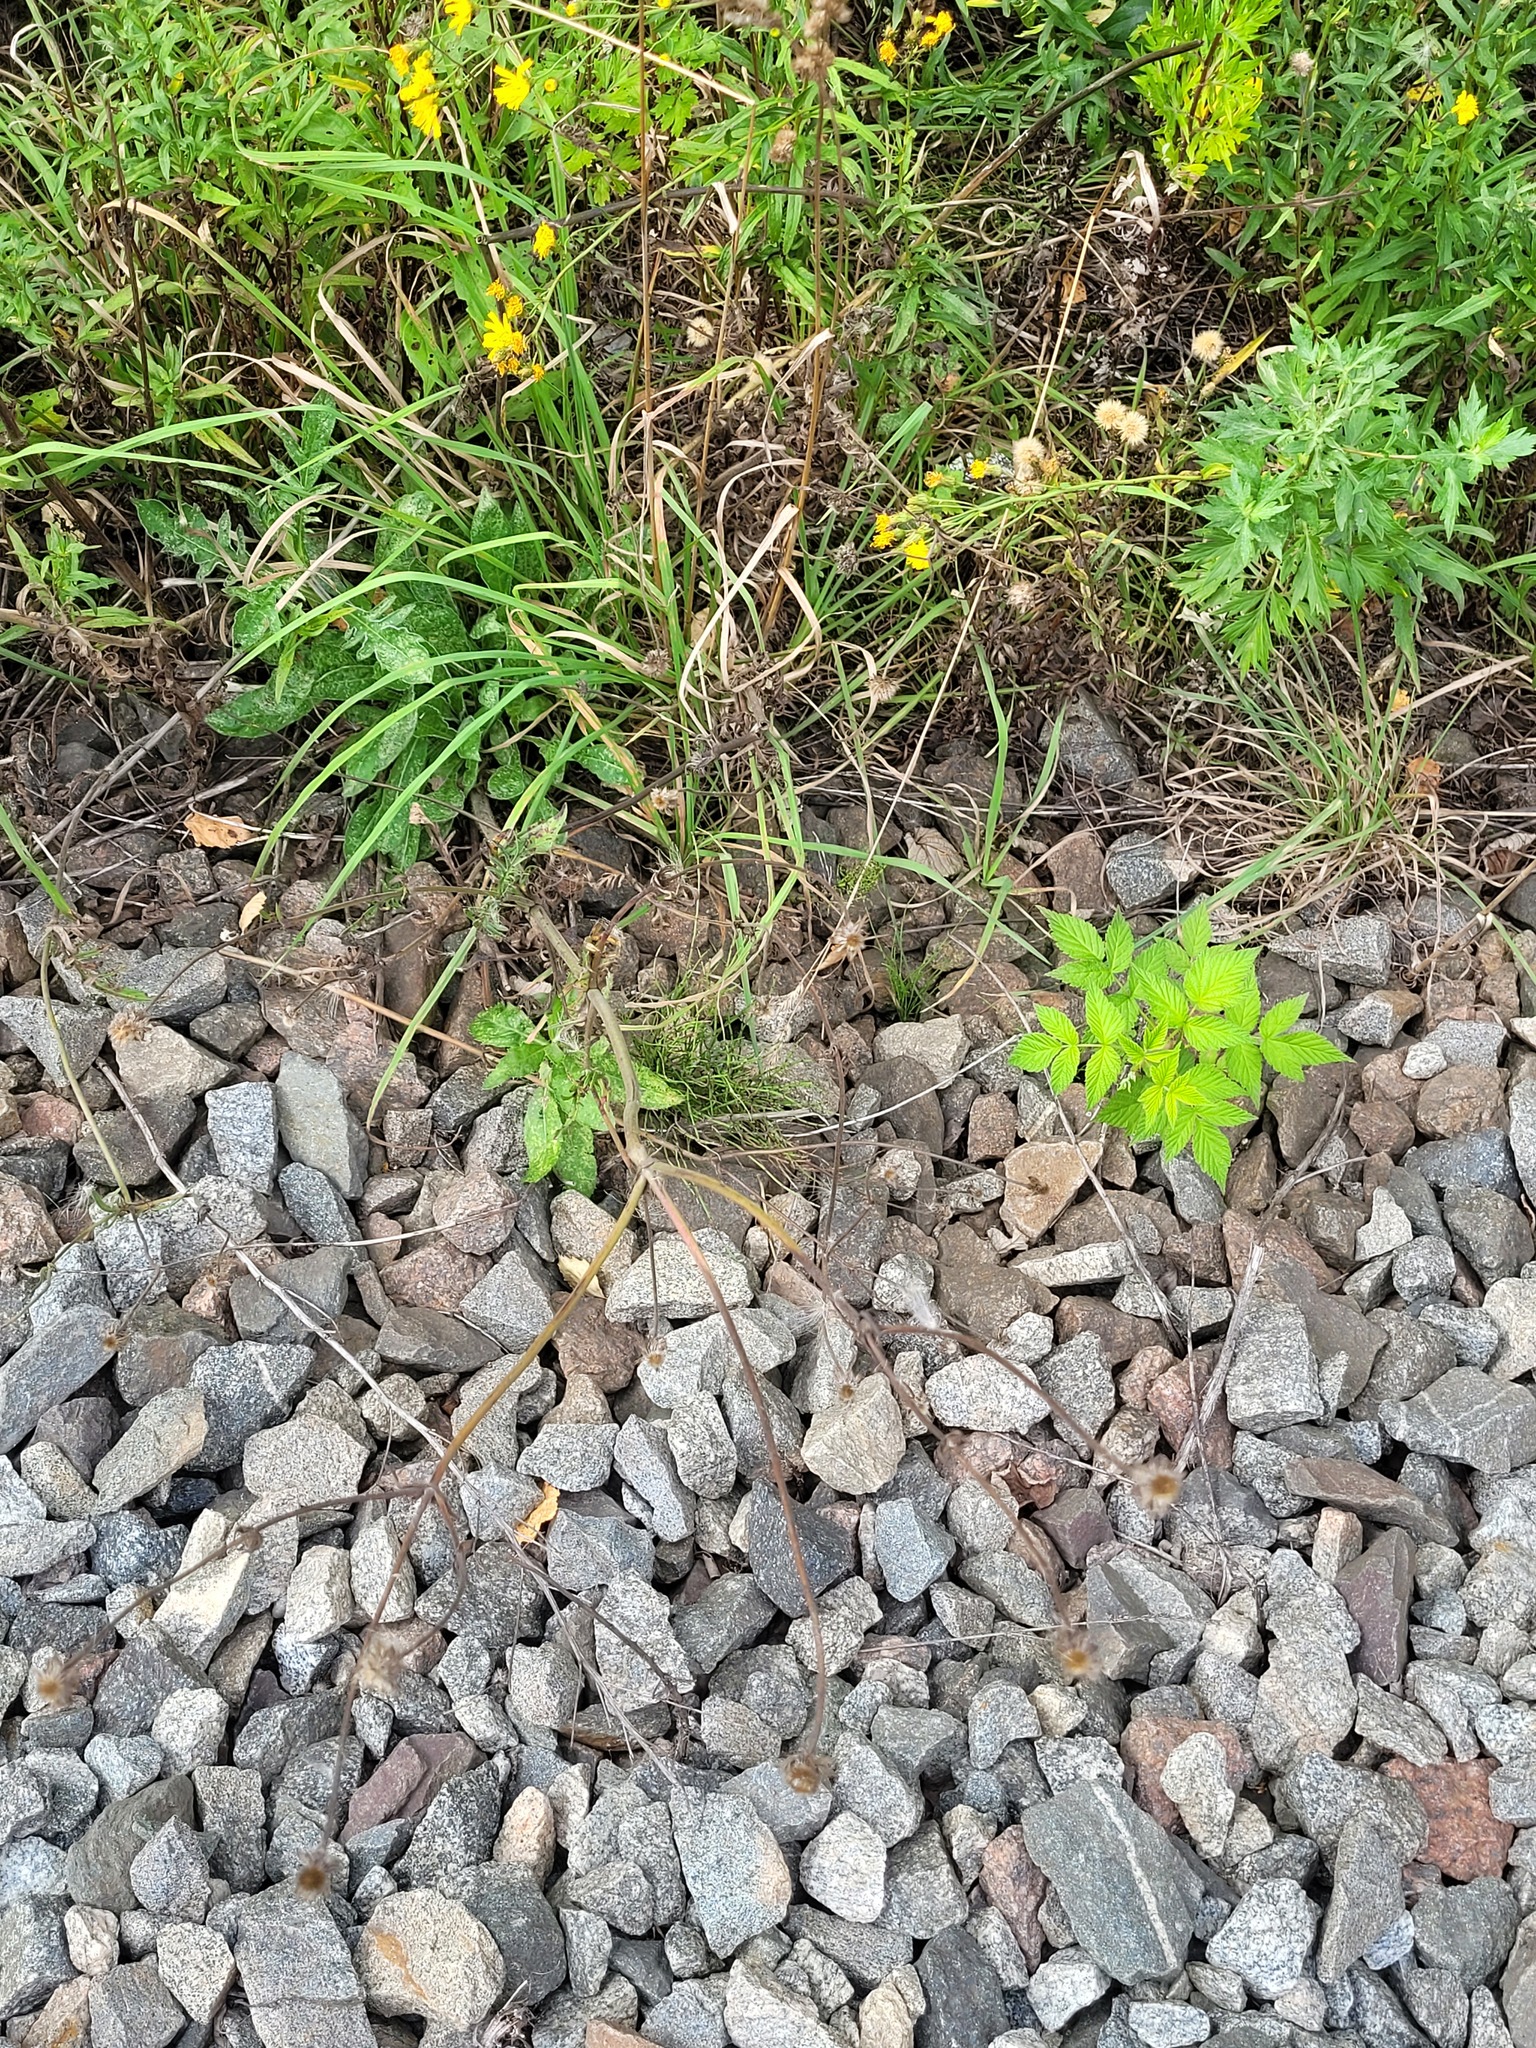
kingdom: Plantae
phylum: Tracheophyta
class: Magnoliopsida
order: Dipsacales
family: Caprifoliaceae
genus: Knautia
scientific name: Knautia arvensis
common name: Field scabiosa
